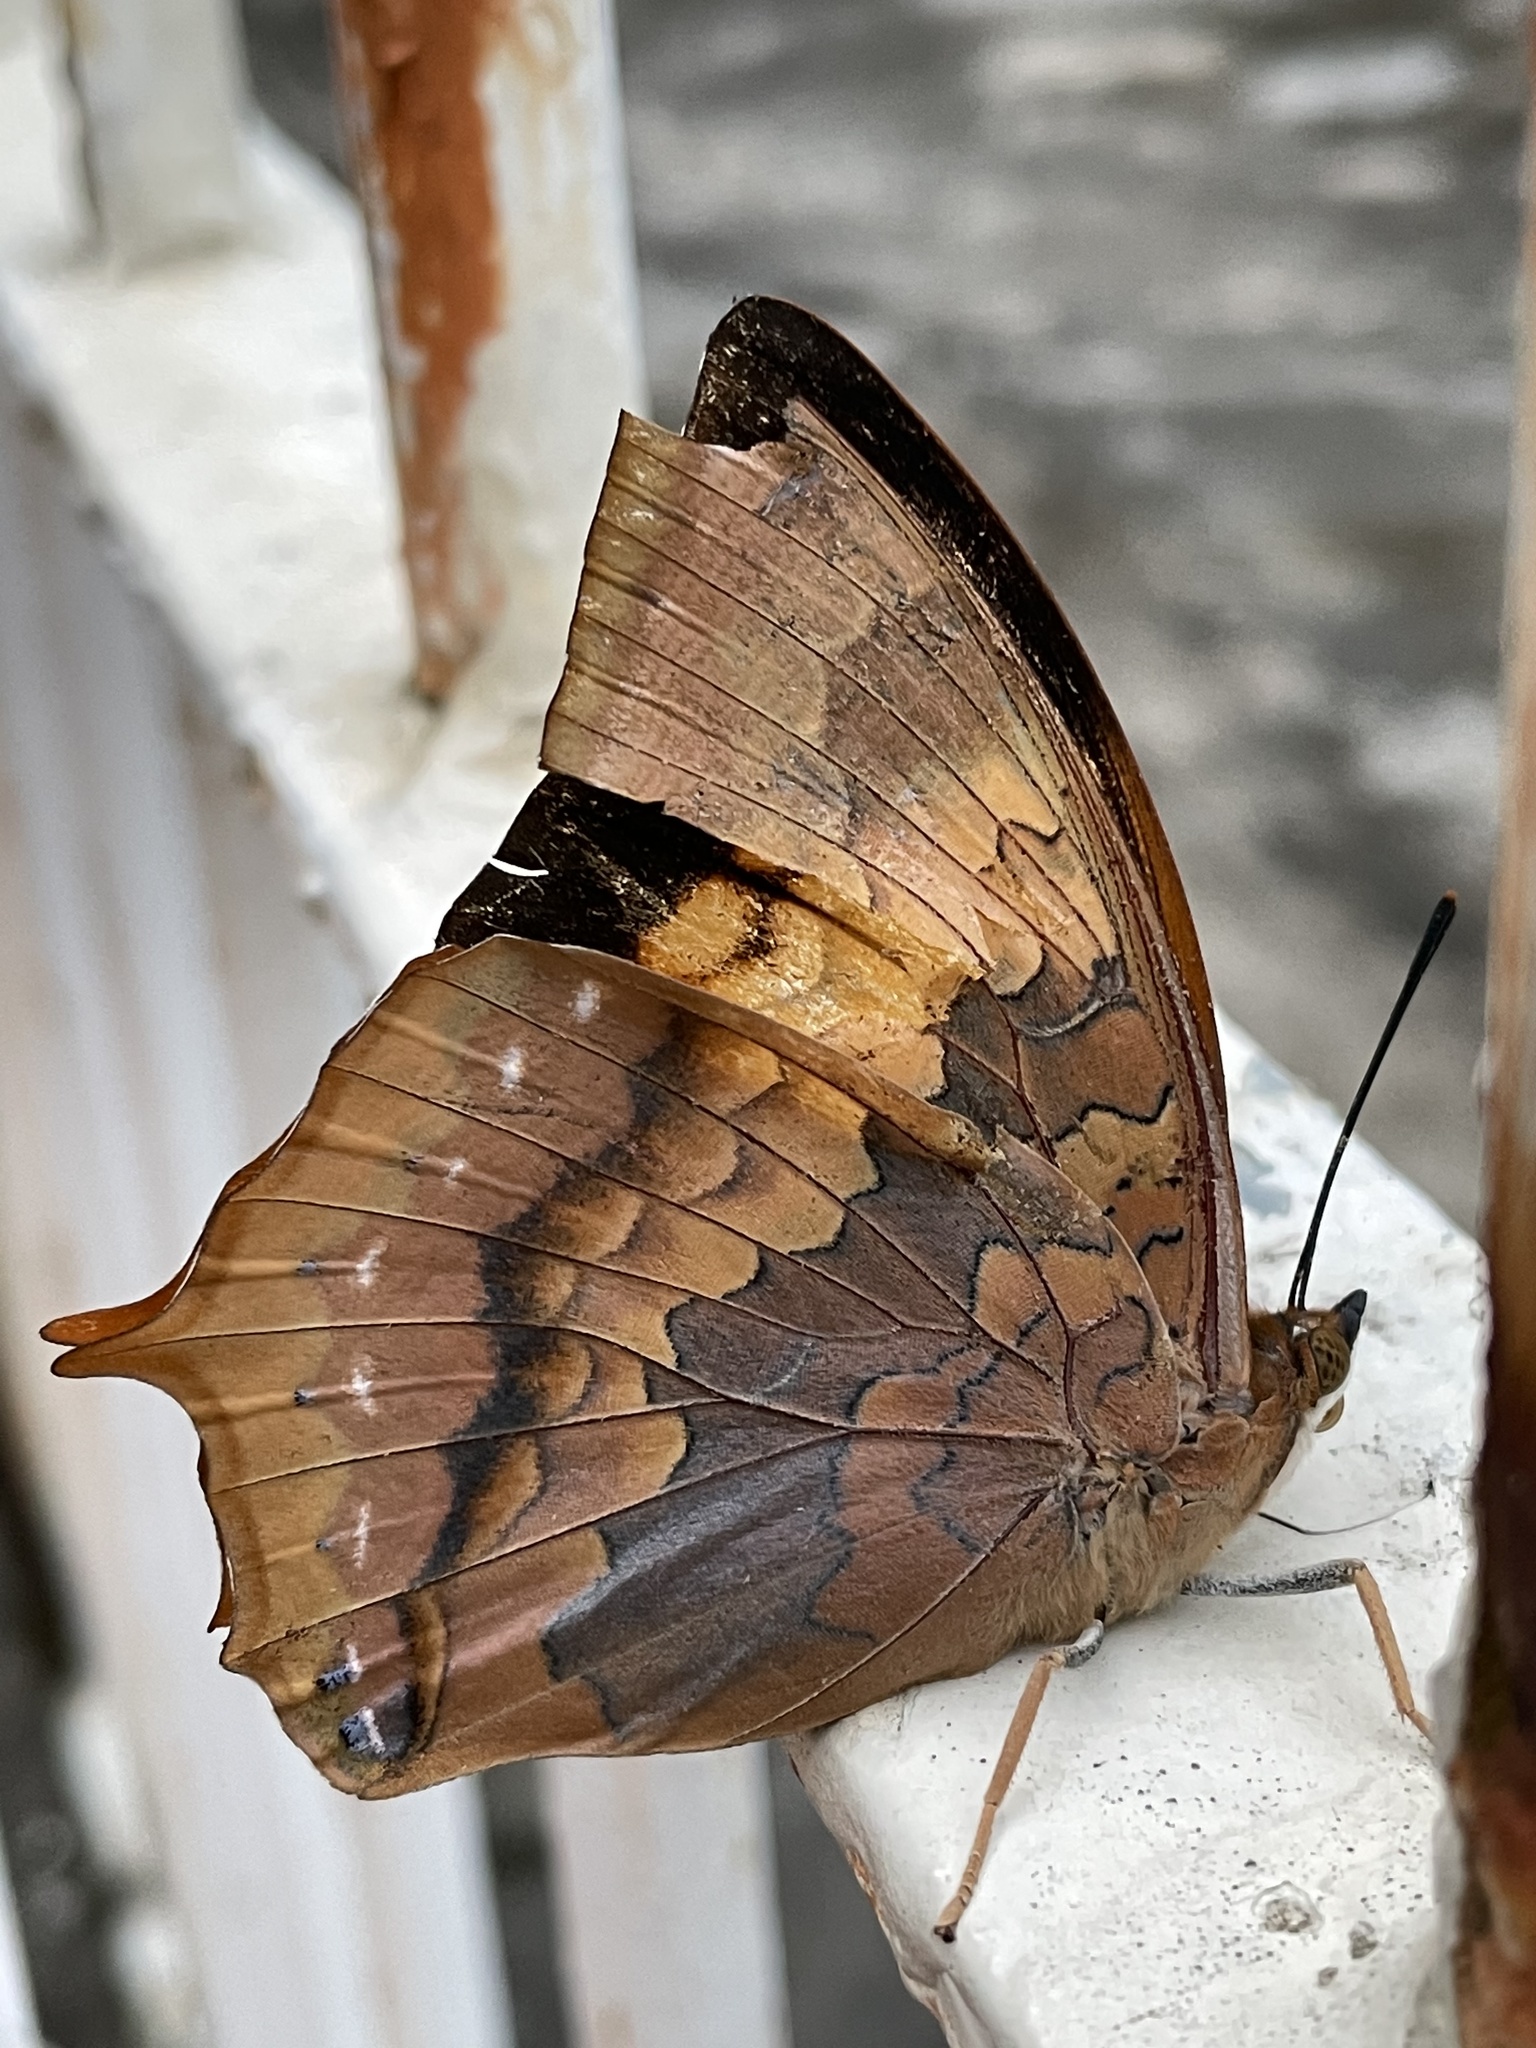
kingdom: Animalia
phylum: Arthropoda
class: Insecta
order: Lepidoptera
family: Nymphalidae
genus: Charaxes
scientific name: Charaxes bernardus
